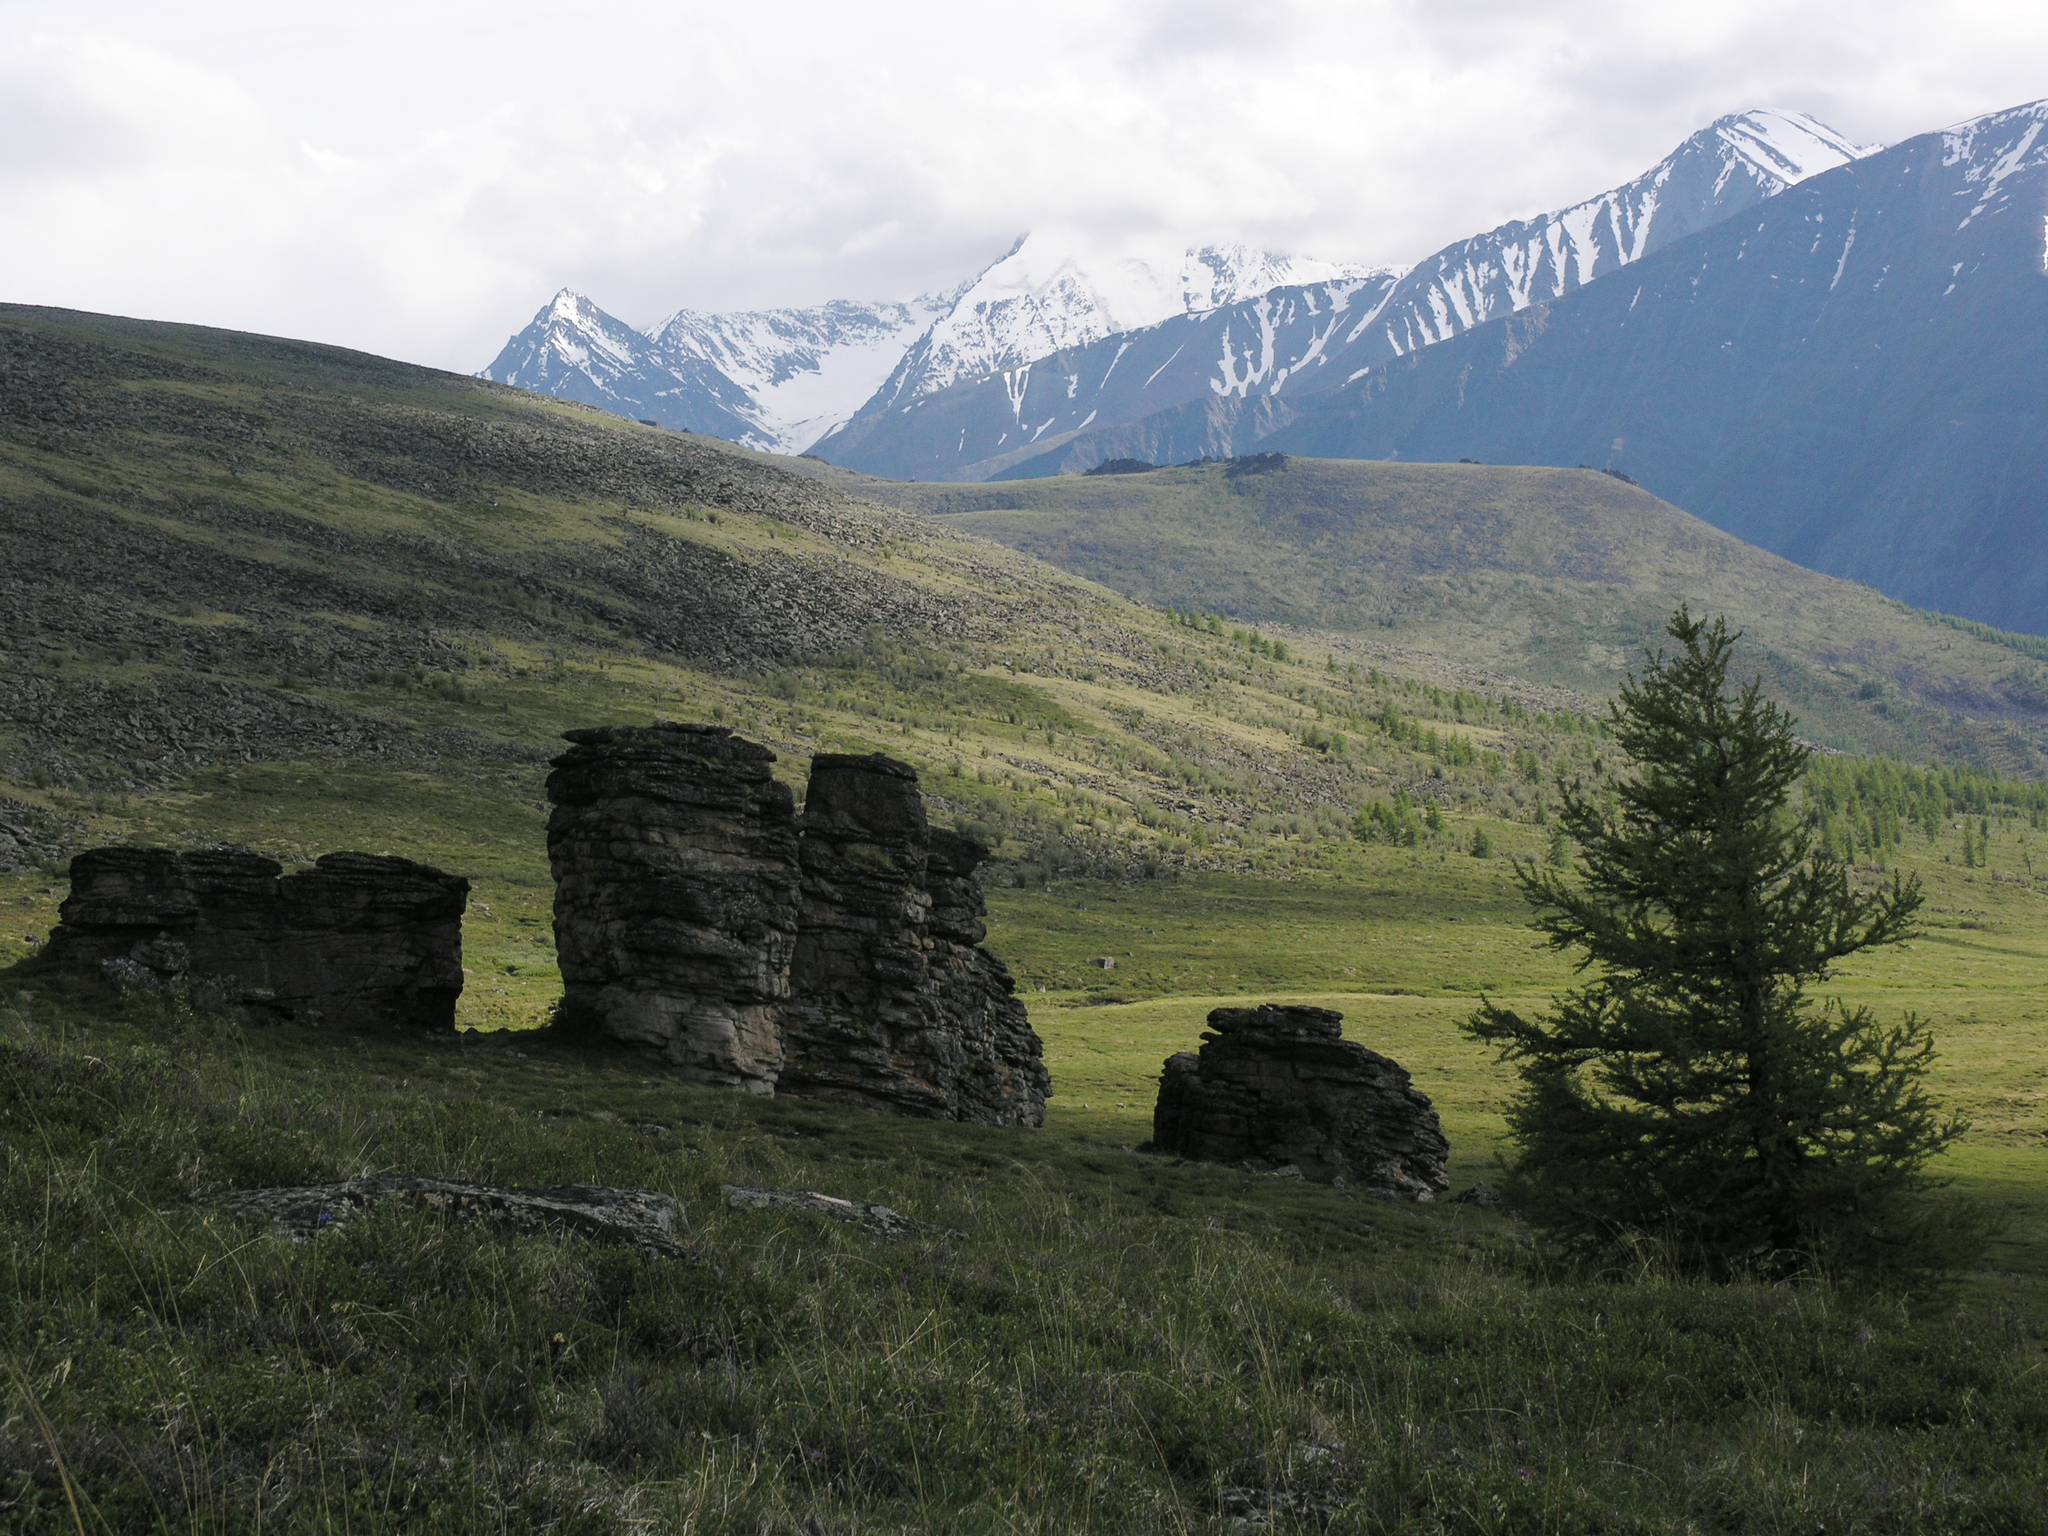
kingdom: Plantae
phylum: Tracheophyta
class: Pinopsida
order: Pinales
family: Pinaceae
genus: Larix
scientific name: Larix sibirica
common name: Siberian larch
